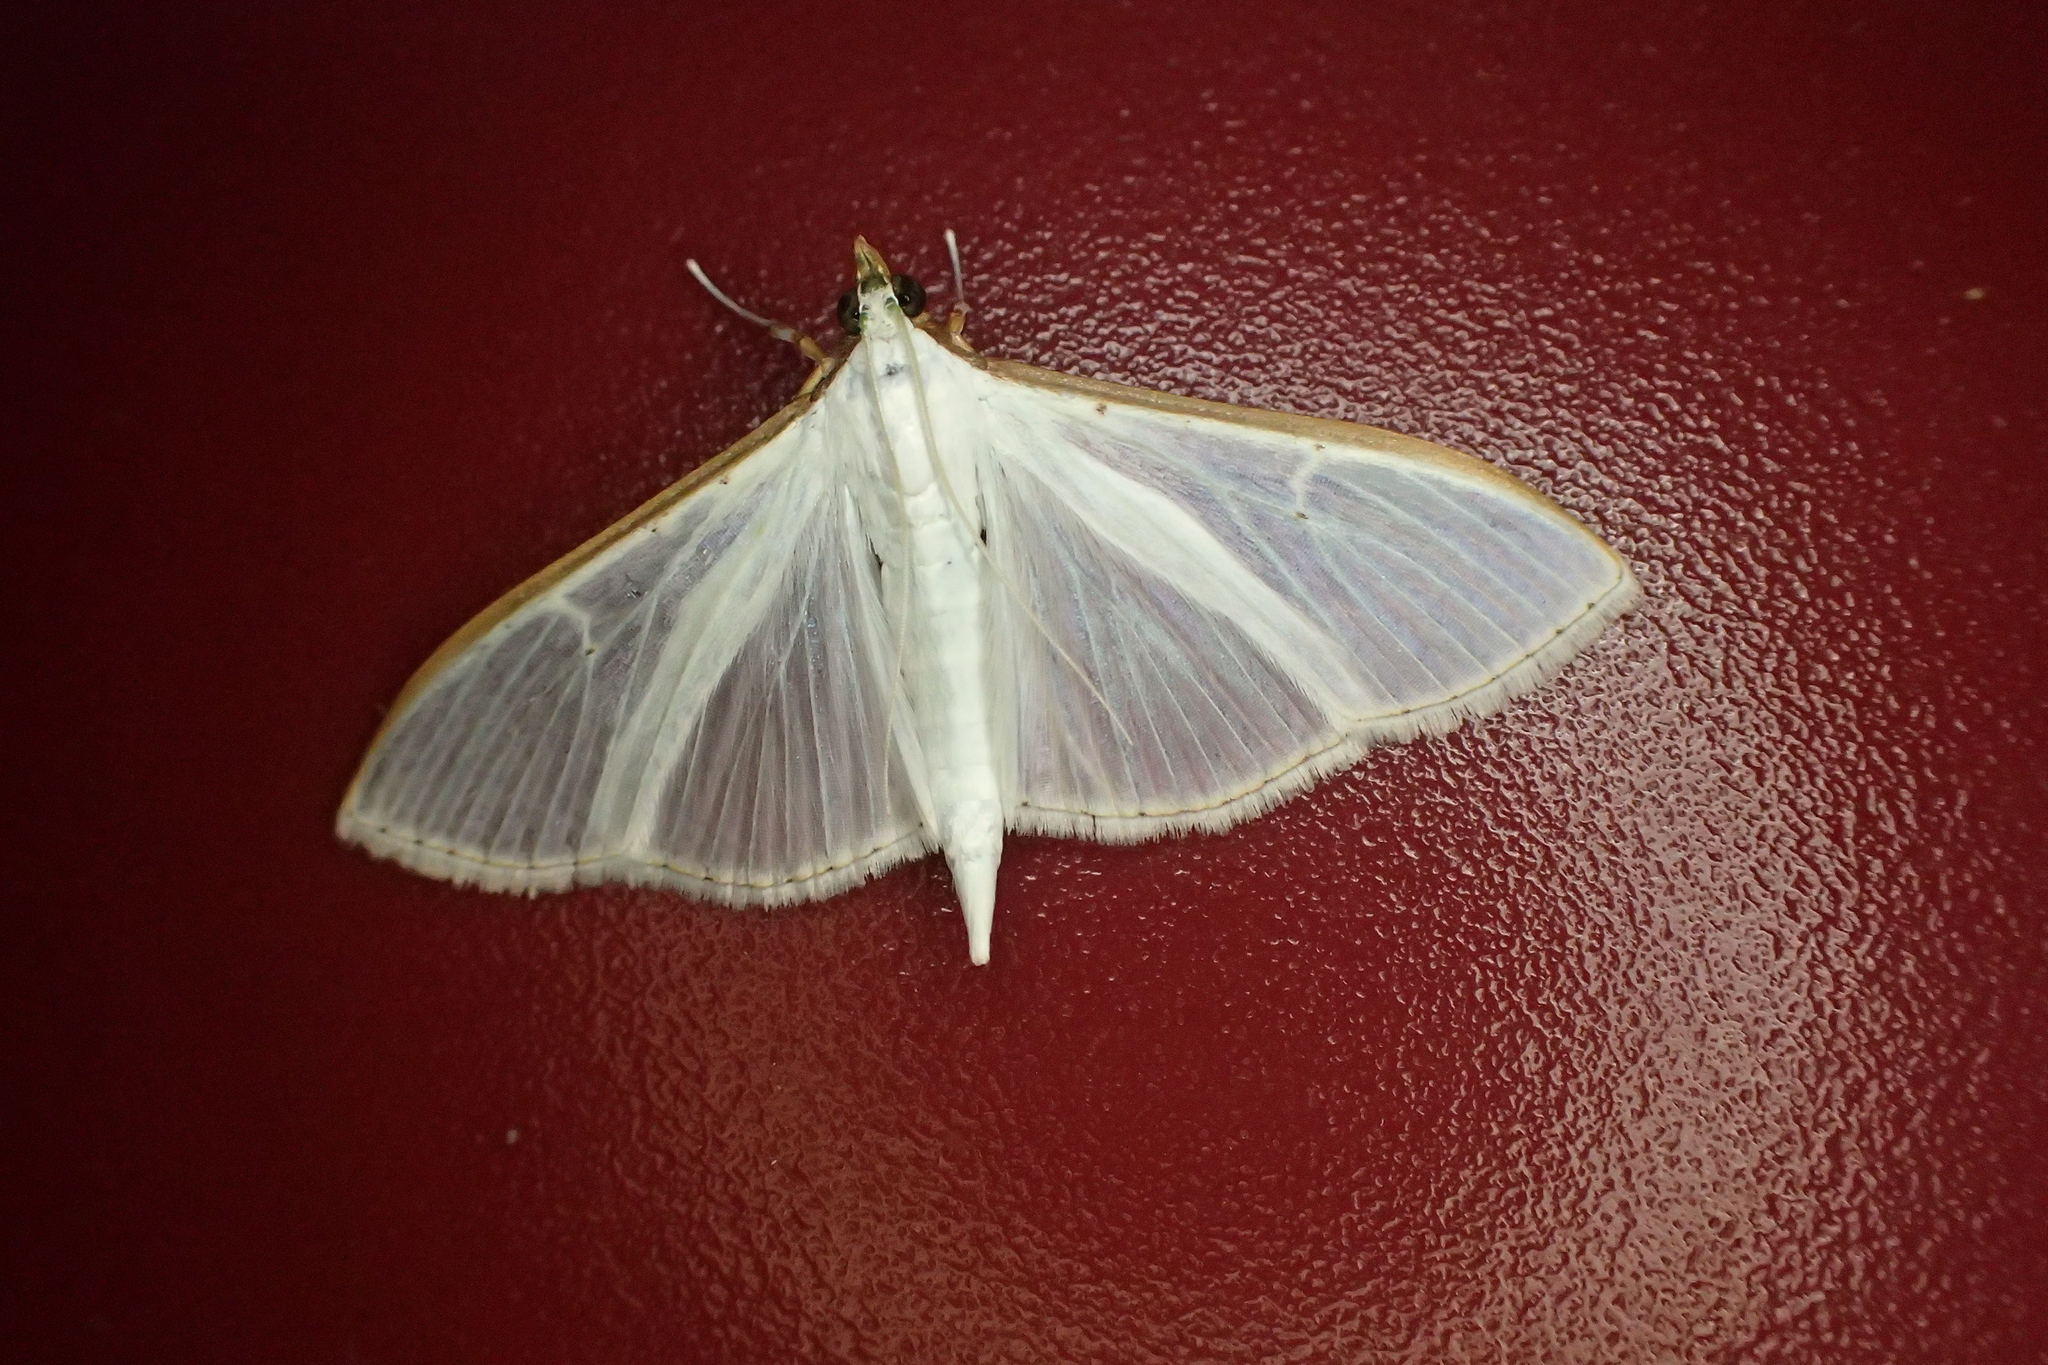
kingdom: Animalia
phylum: Arthropoda
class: Insecta
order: Lepidoptera
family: Crambidae
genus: Palpita
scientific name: Palpita vitrealis
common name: Olive-tree pearl
